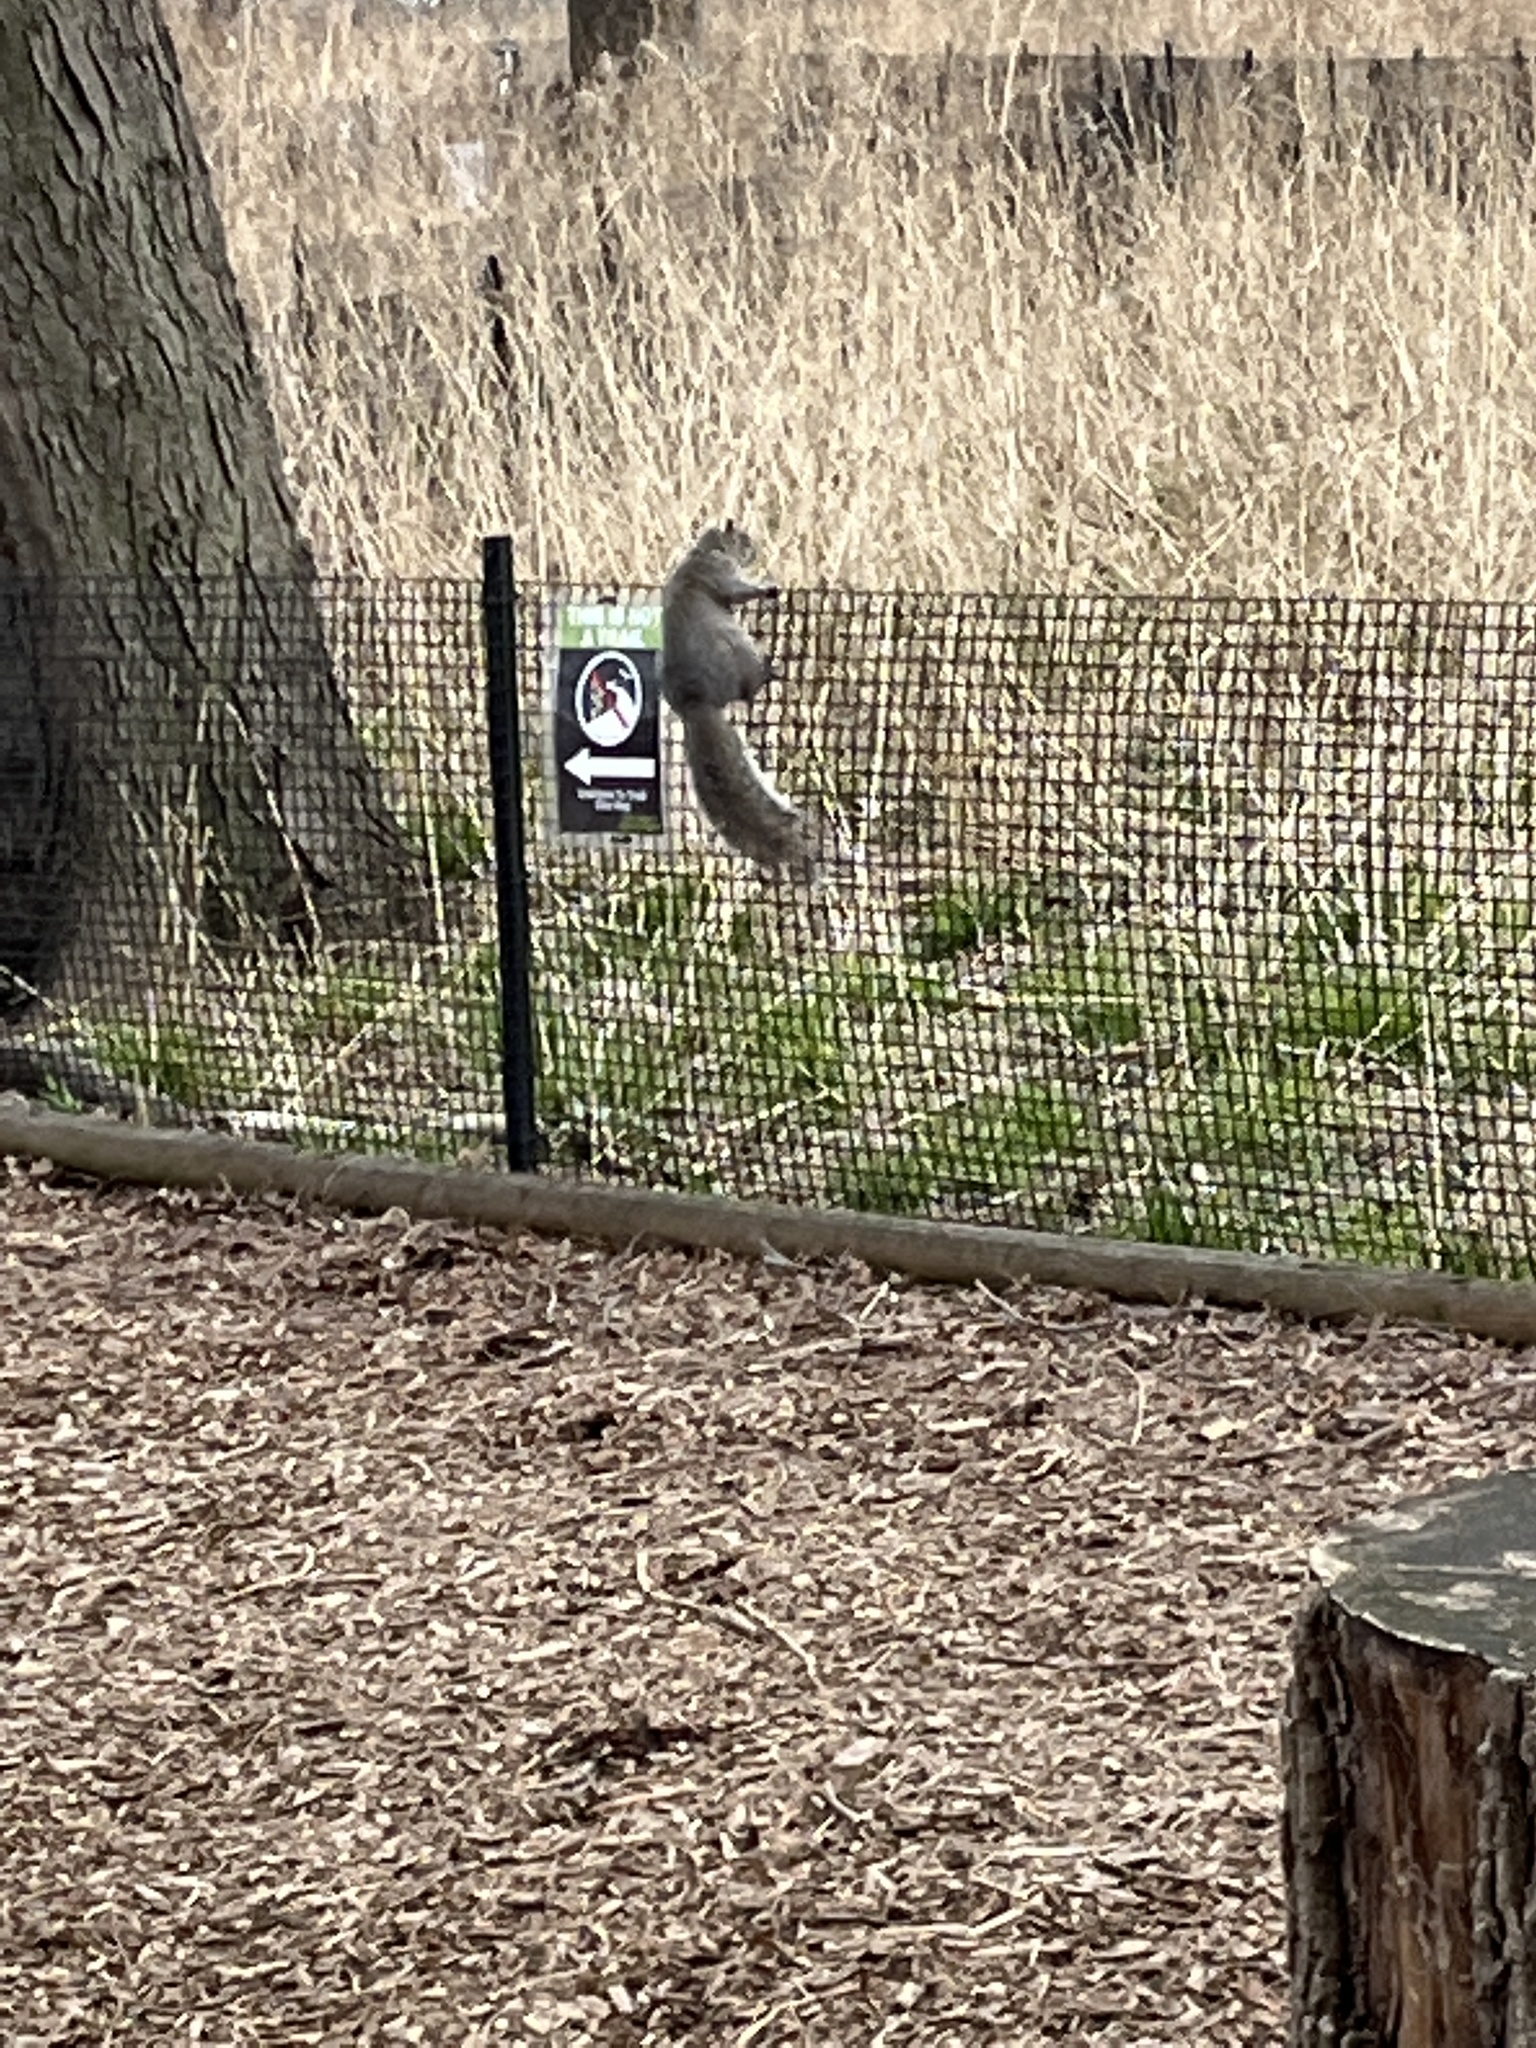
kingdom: Animalia
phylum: Chordata
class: Mammalia
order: Rodentia
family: Sciuridae
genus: Sciurus
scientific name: Sciurus carolinensis
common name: Eastern gray squirrel
